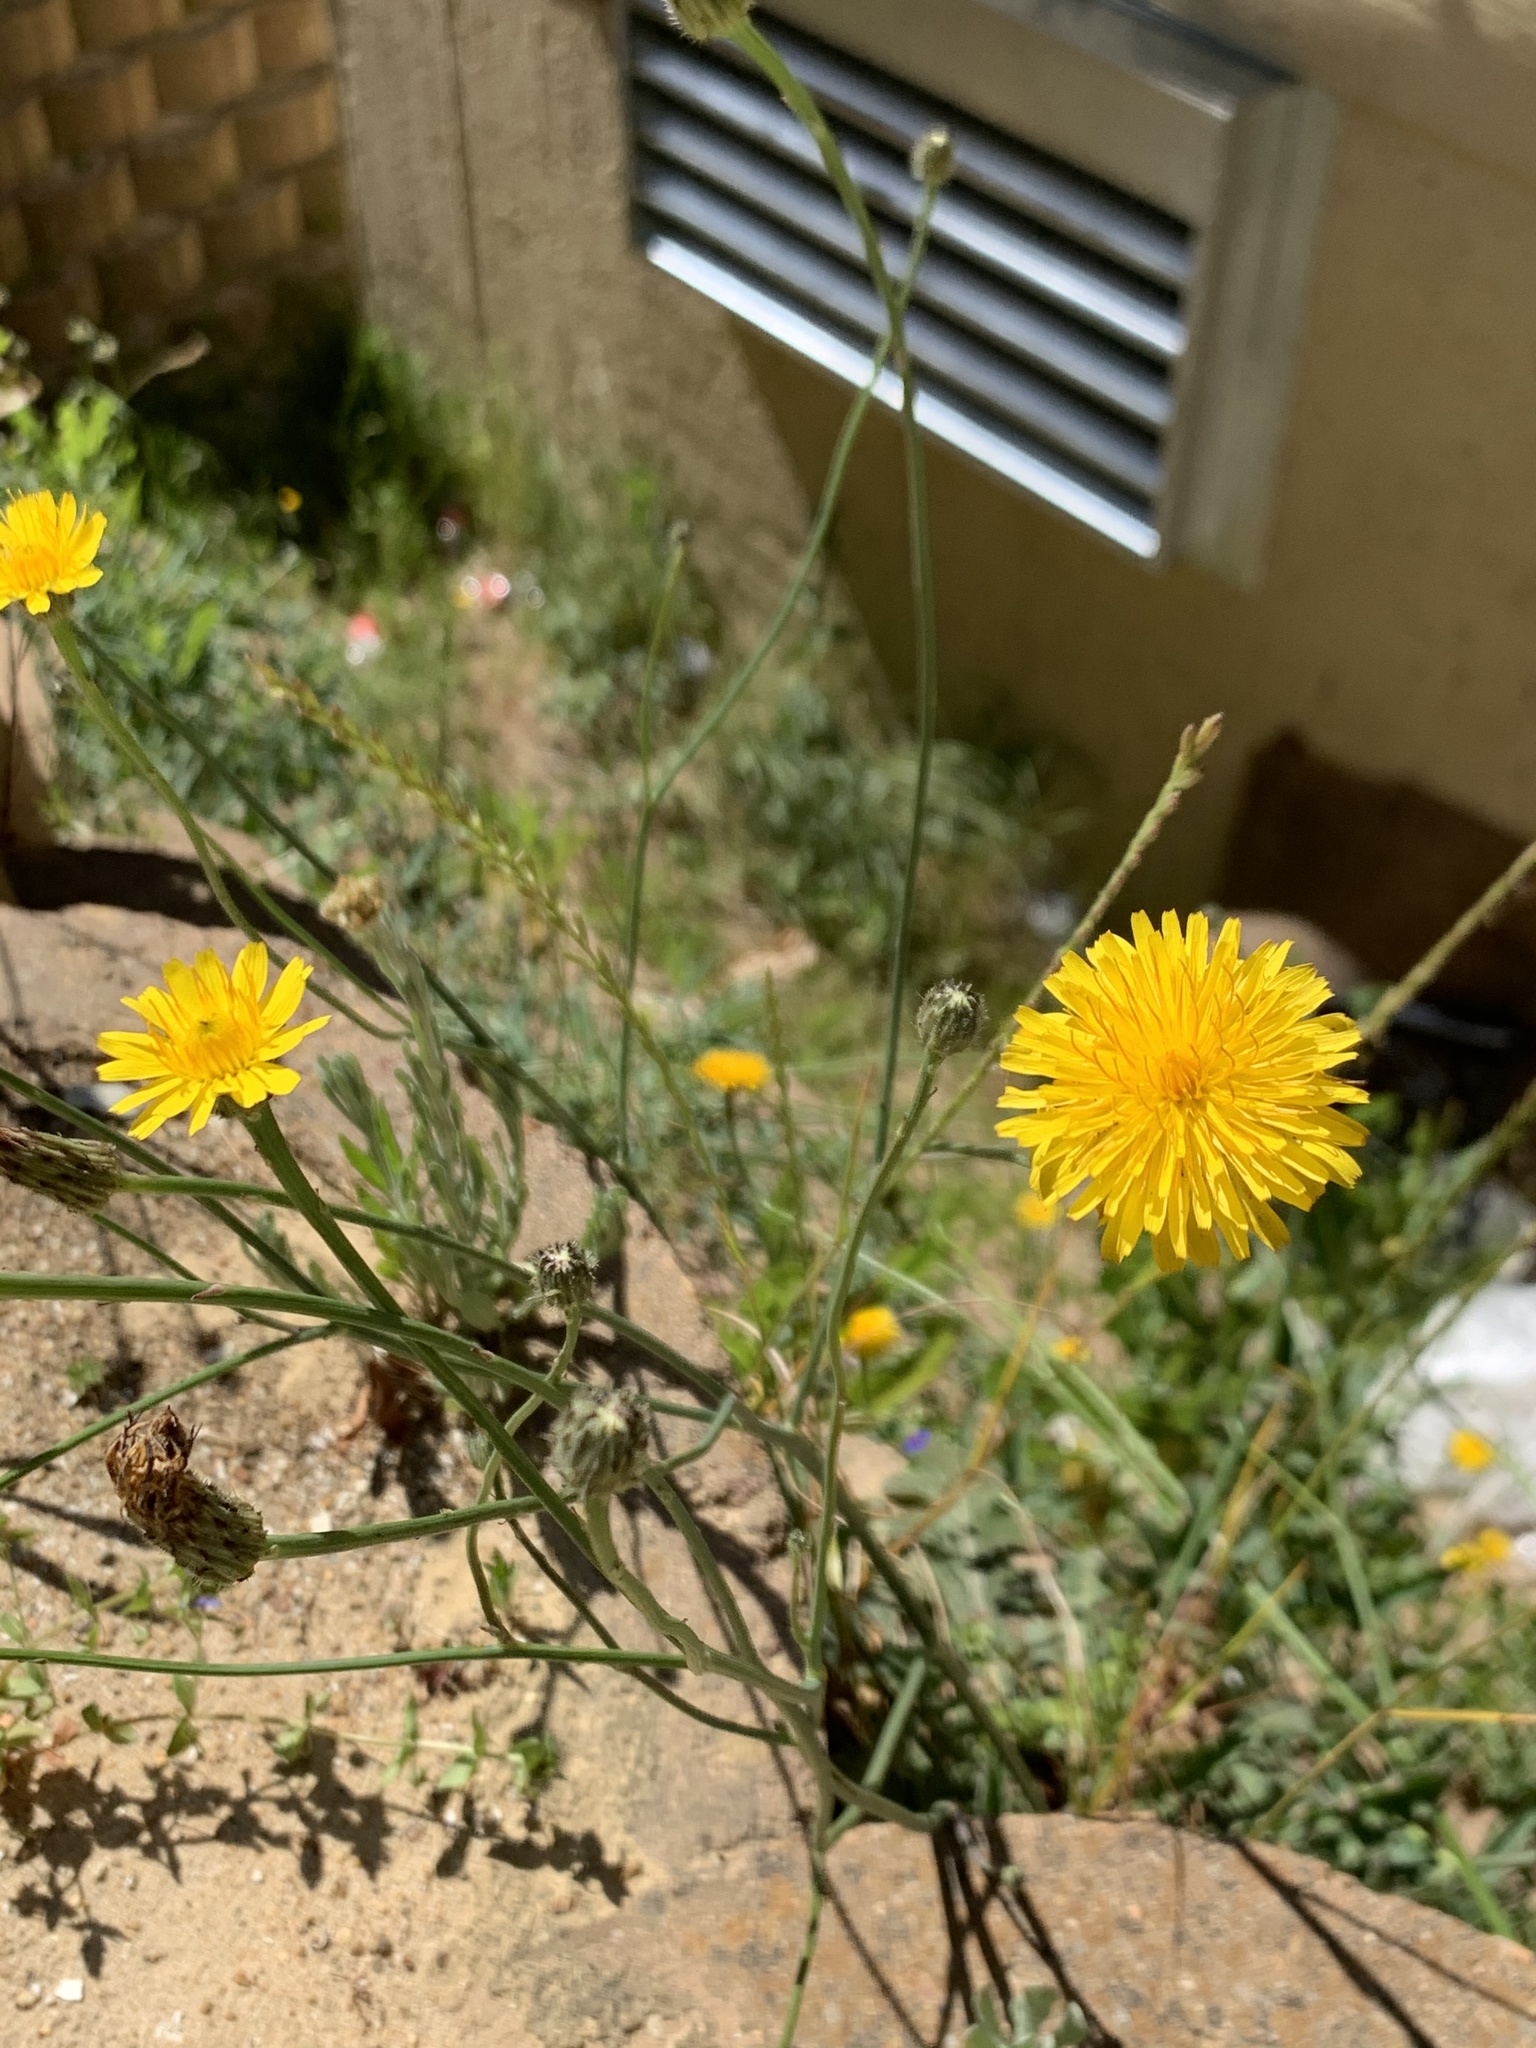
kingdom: Plantae
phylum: Tracheophyta
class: Magnoliopsida
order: Asterales
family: Asteraceae
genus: Hypochaeris
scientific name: Hypochaeris radicata
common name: Flatweed
